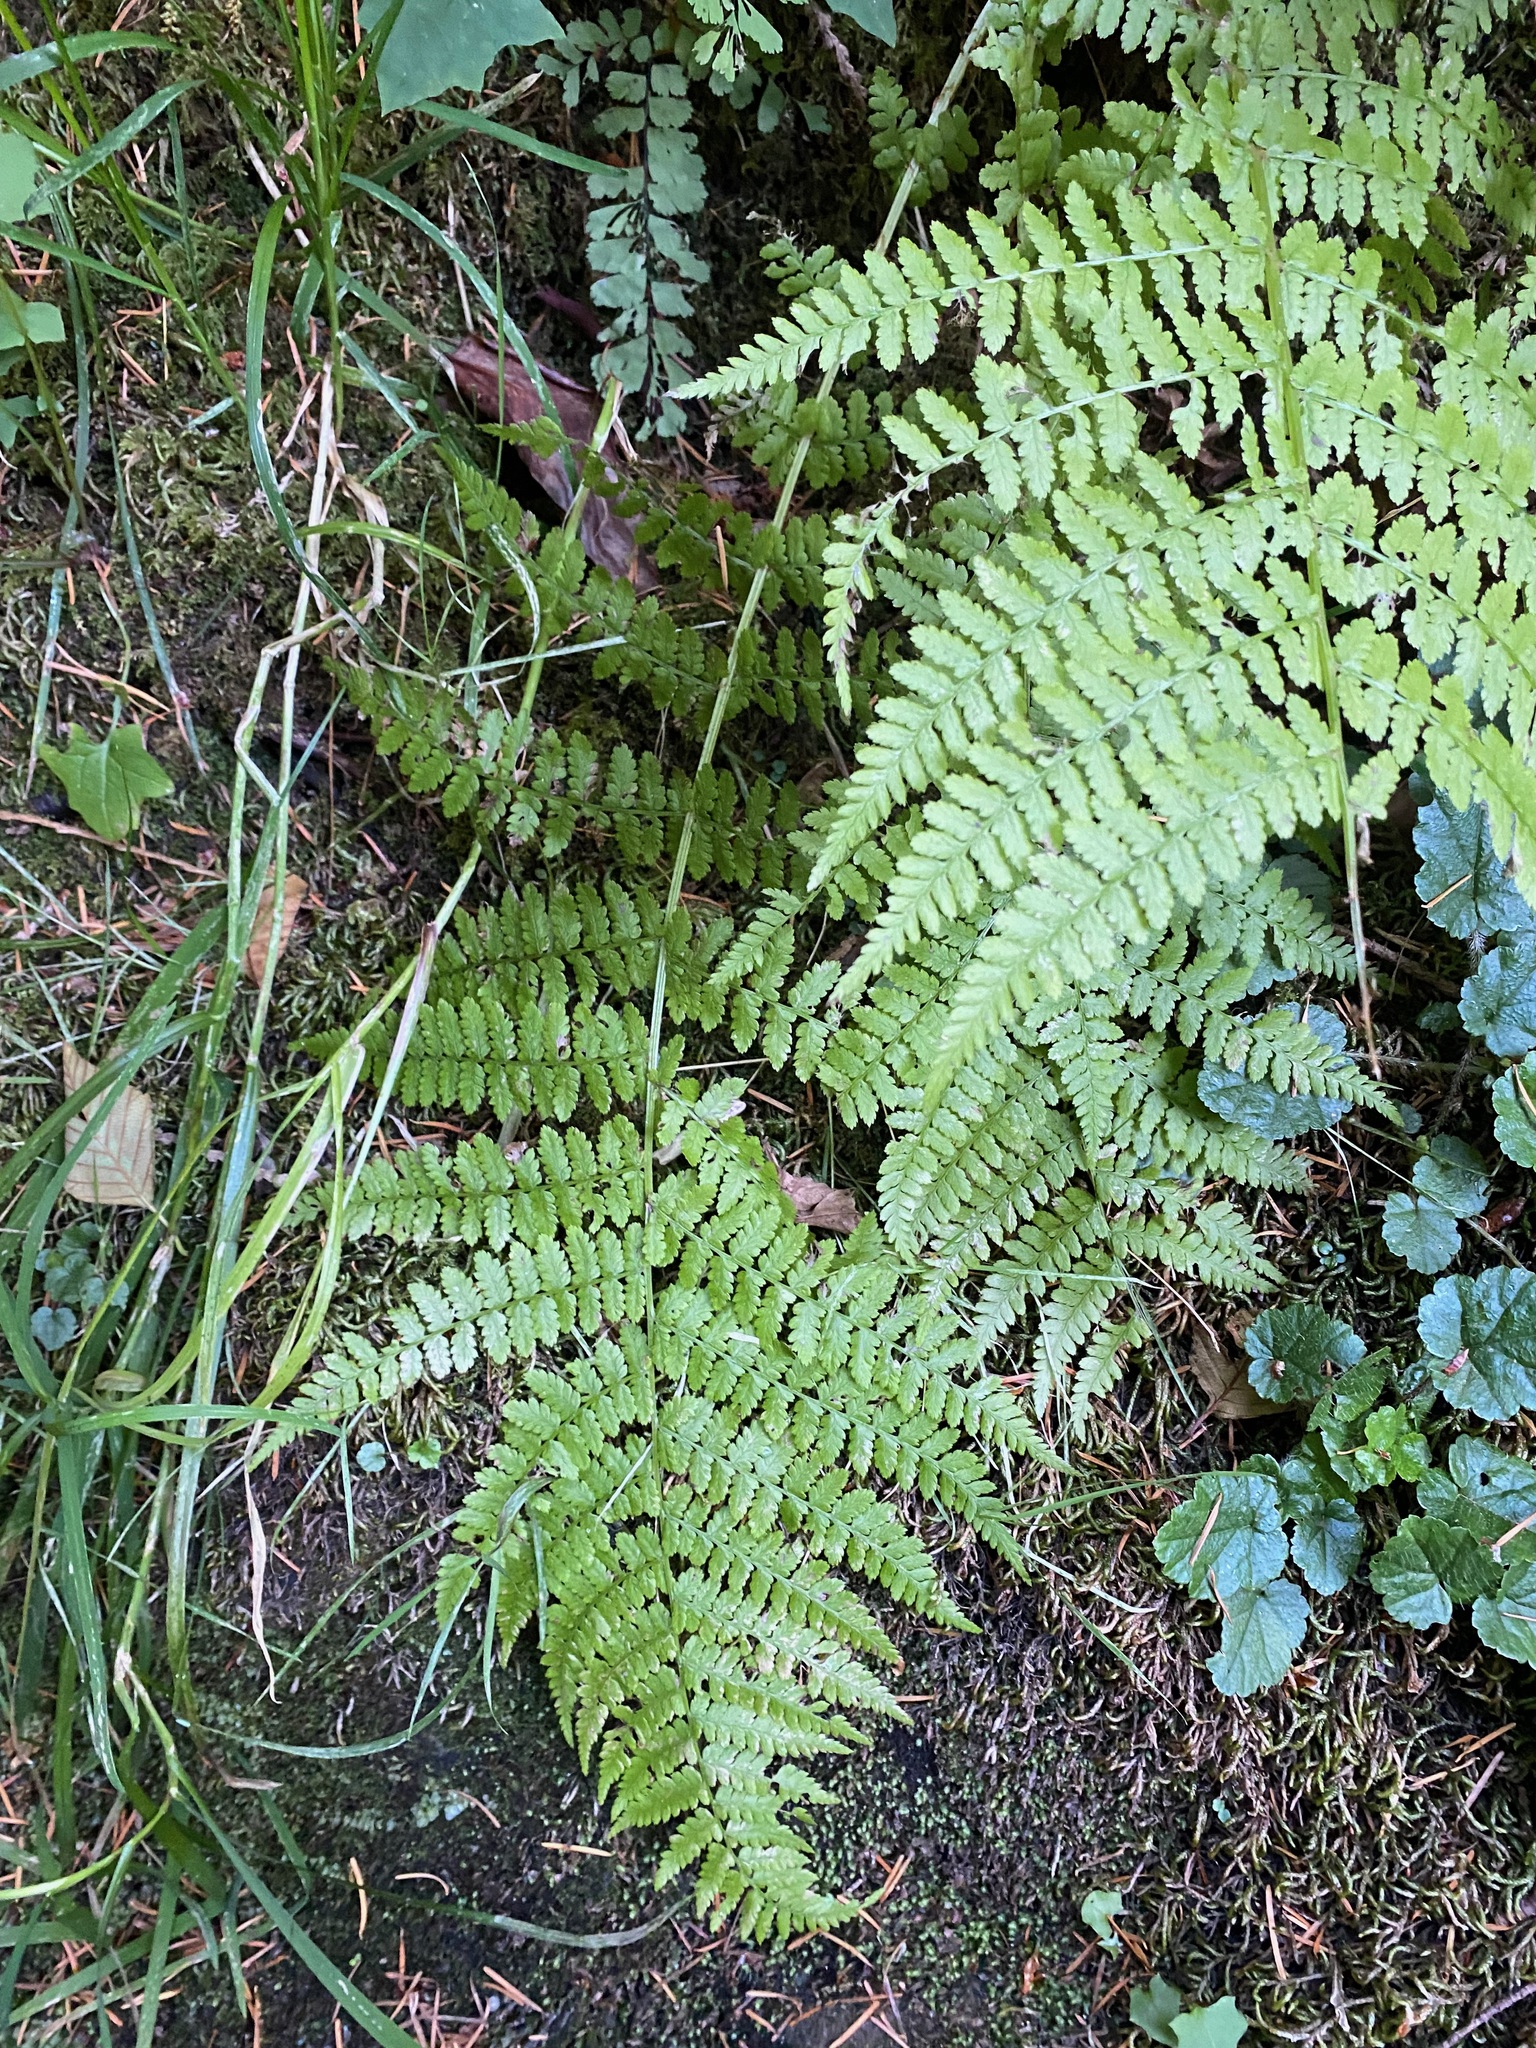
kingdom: Plantae
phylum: Tracheophyta
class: Polypodiopsida
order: Polypodiales
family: Athyriaceae
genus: Athyrium
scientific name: Athyrium filix-femina
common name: Lady fern
